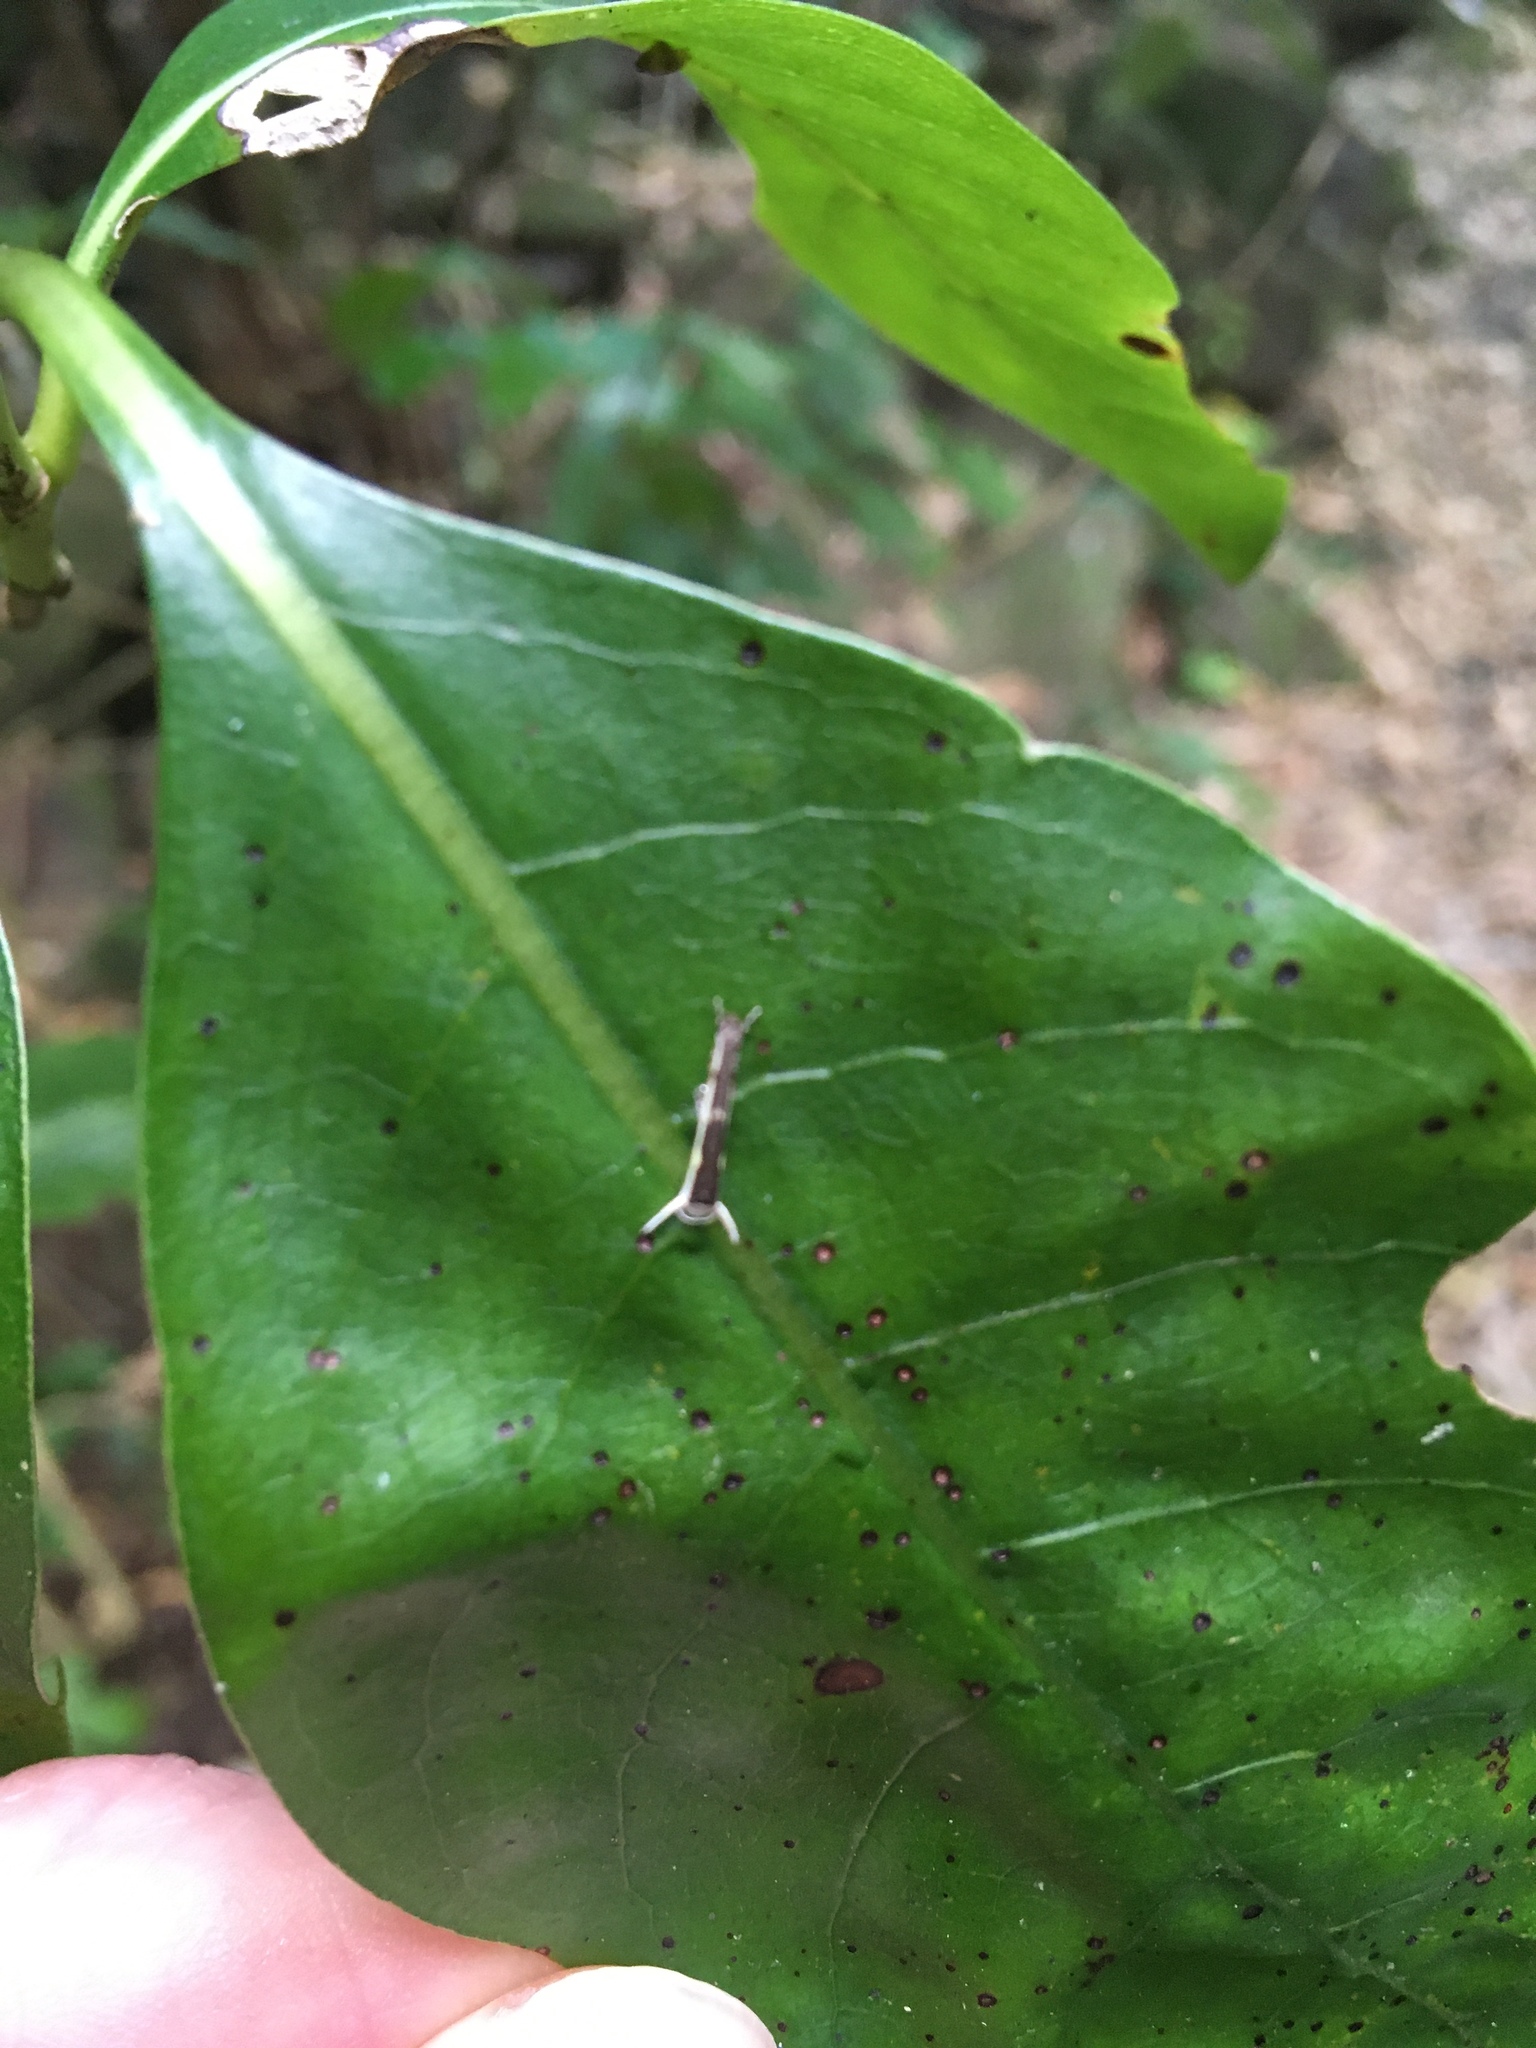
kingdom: Animalia
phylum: Arthropoda
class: Insecta
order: Lepidoptera
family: Roeslerstammiidae
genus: Vanicela
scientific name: Vanicela disjunctella
